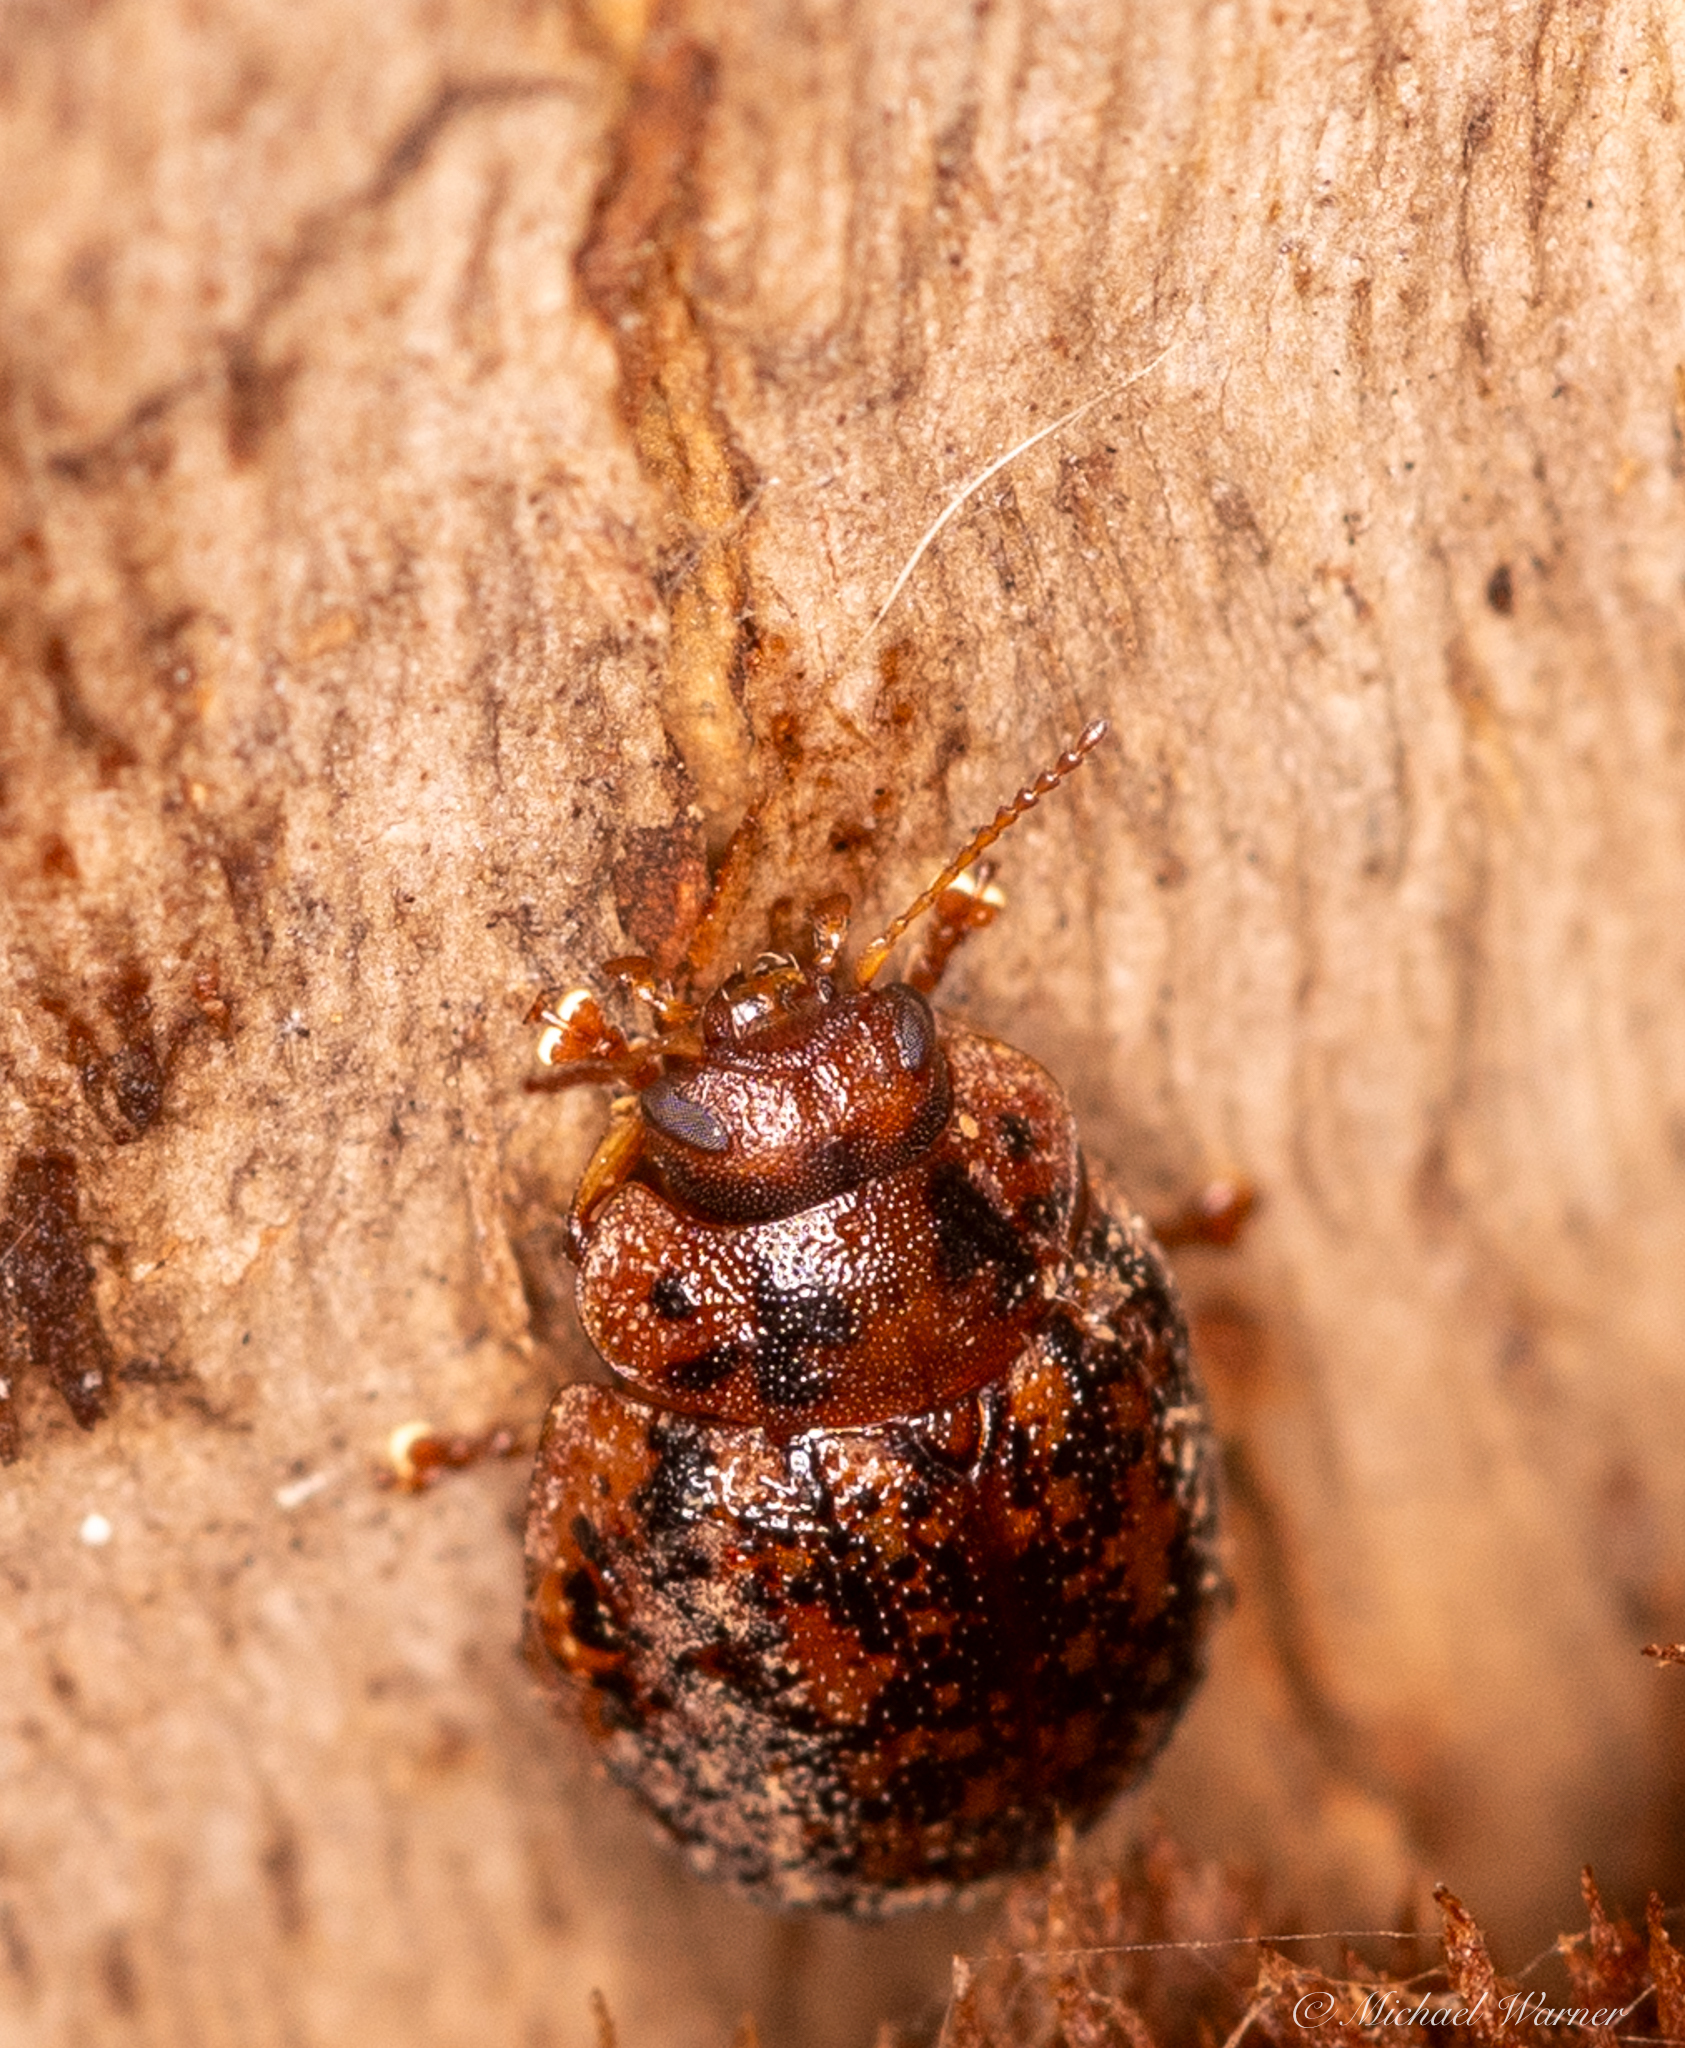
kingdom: Animalia
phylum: Arthropoda
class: Insecta
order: Coleoptera
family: Chrysomelidae
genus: Trachymela
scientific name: Trachymela sloanei
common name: Australian tortoise beetle
